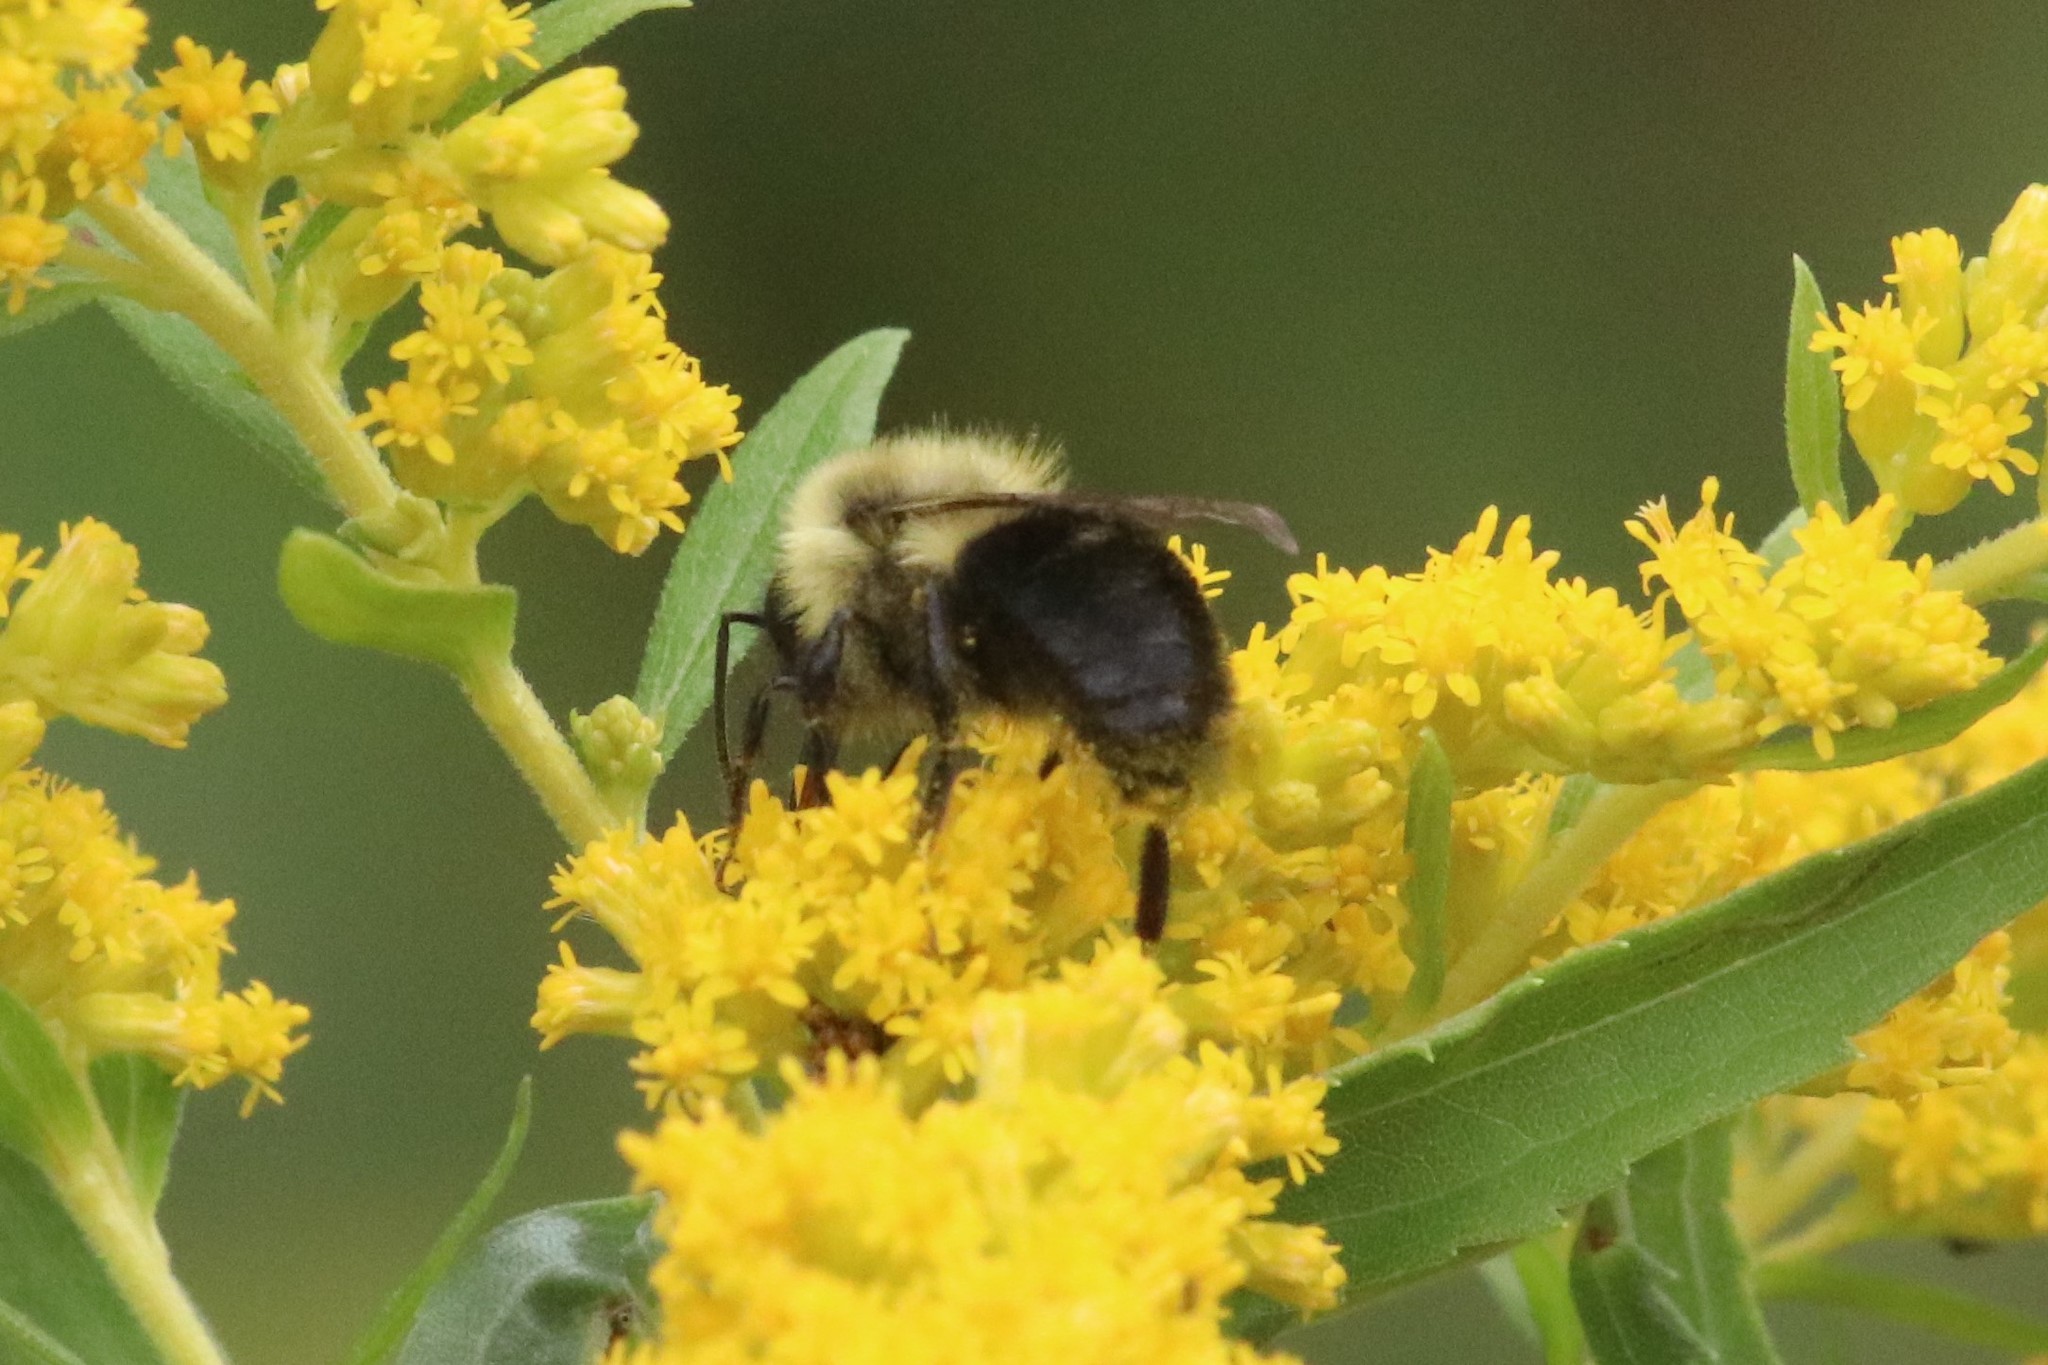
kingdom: Animalia
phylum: Arthropoda
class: Insecta
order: Hymenoptera
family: Apidae
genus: Bombus
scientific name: Bombus impatiens
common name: Common eastern bumble bee
